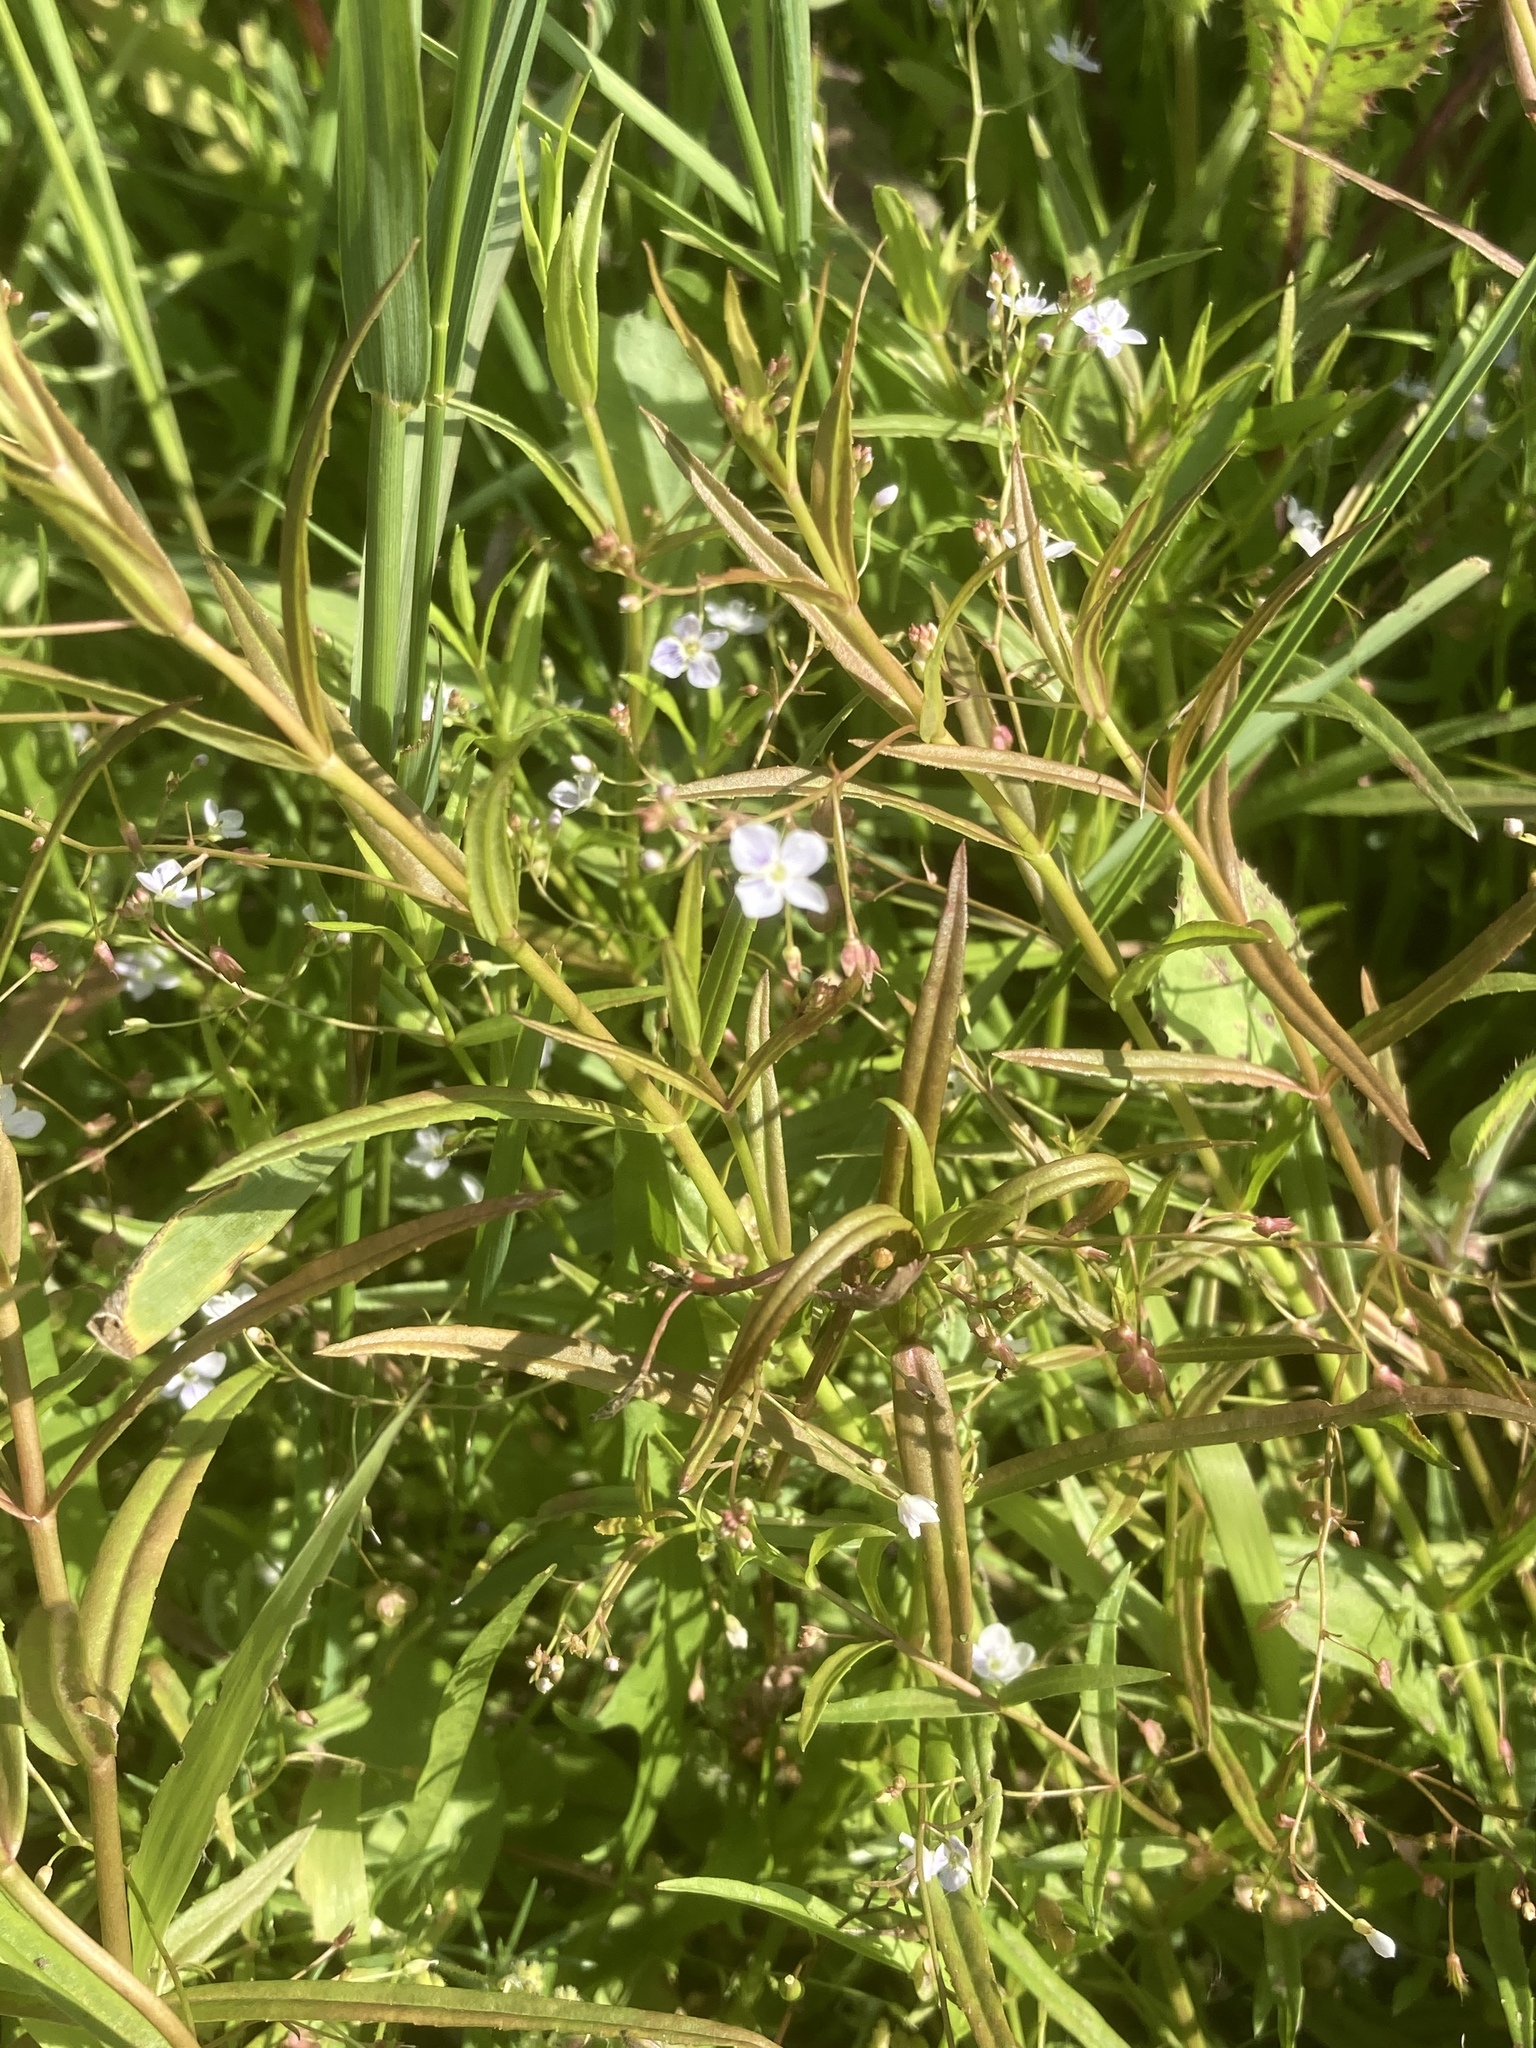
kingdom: Plantae
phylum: Tracheophyta
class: Magnoliopsida
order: Lamiales
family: Plantaginaceae
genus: Veronica
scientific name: Veronica scutellata
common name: Marsh speedwell
